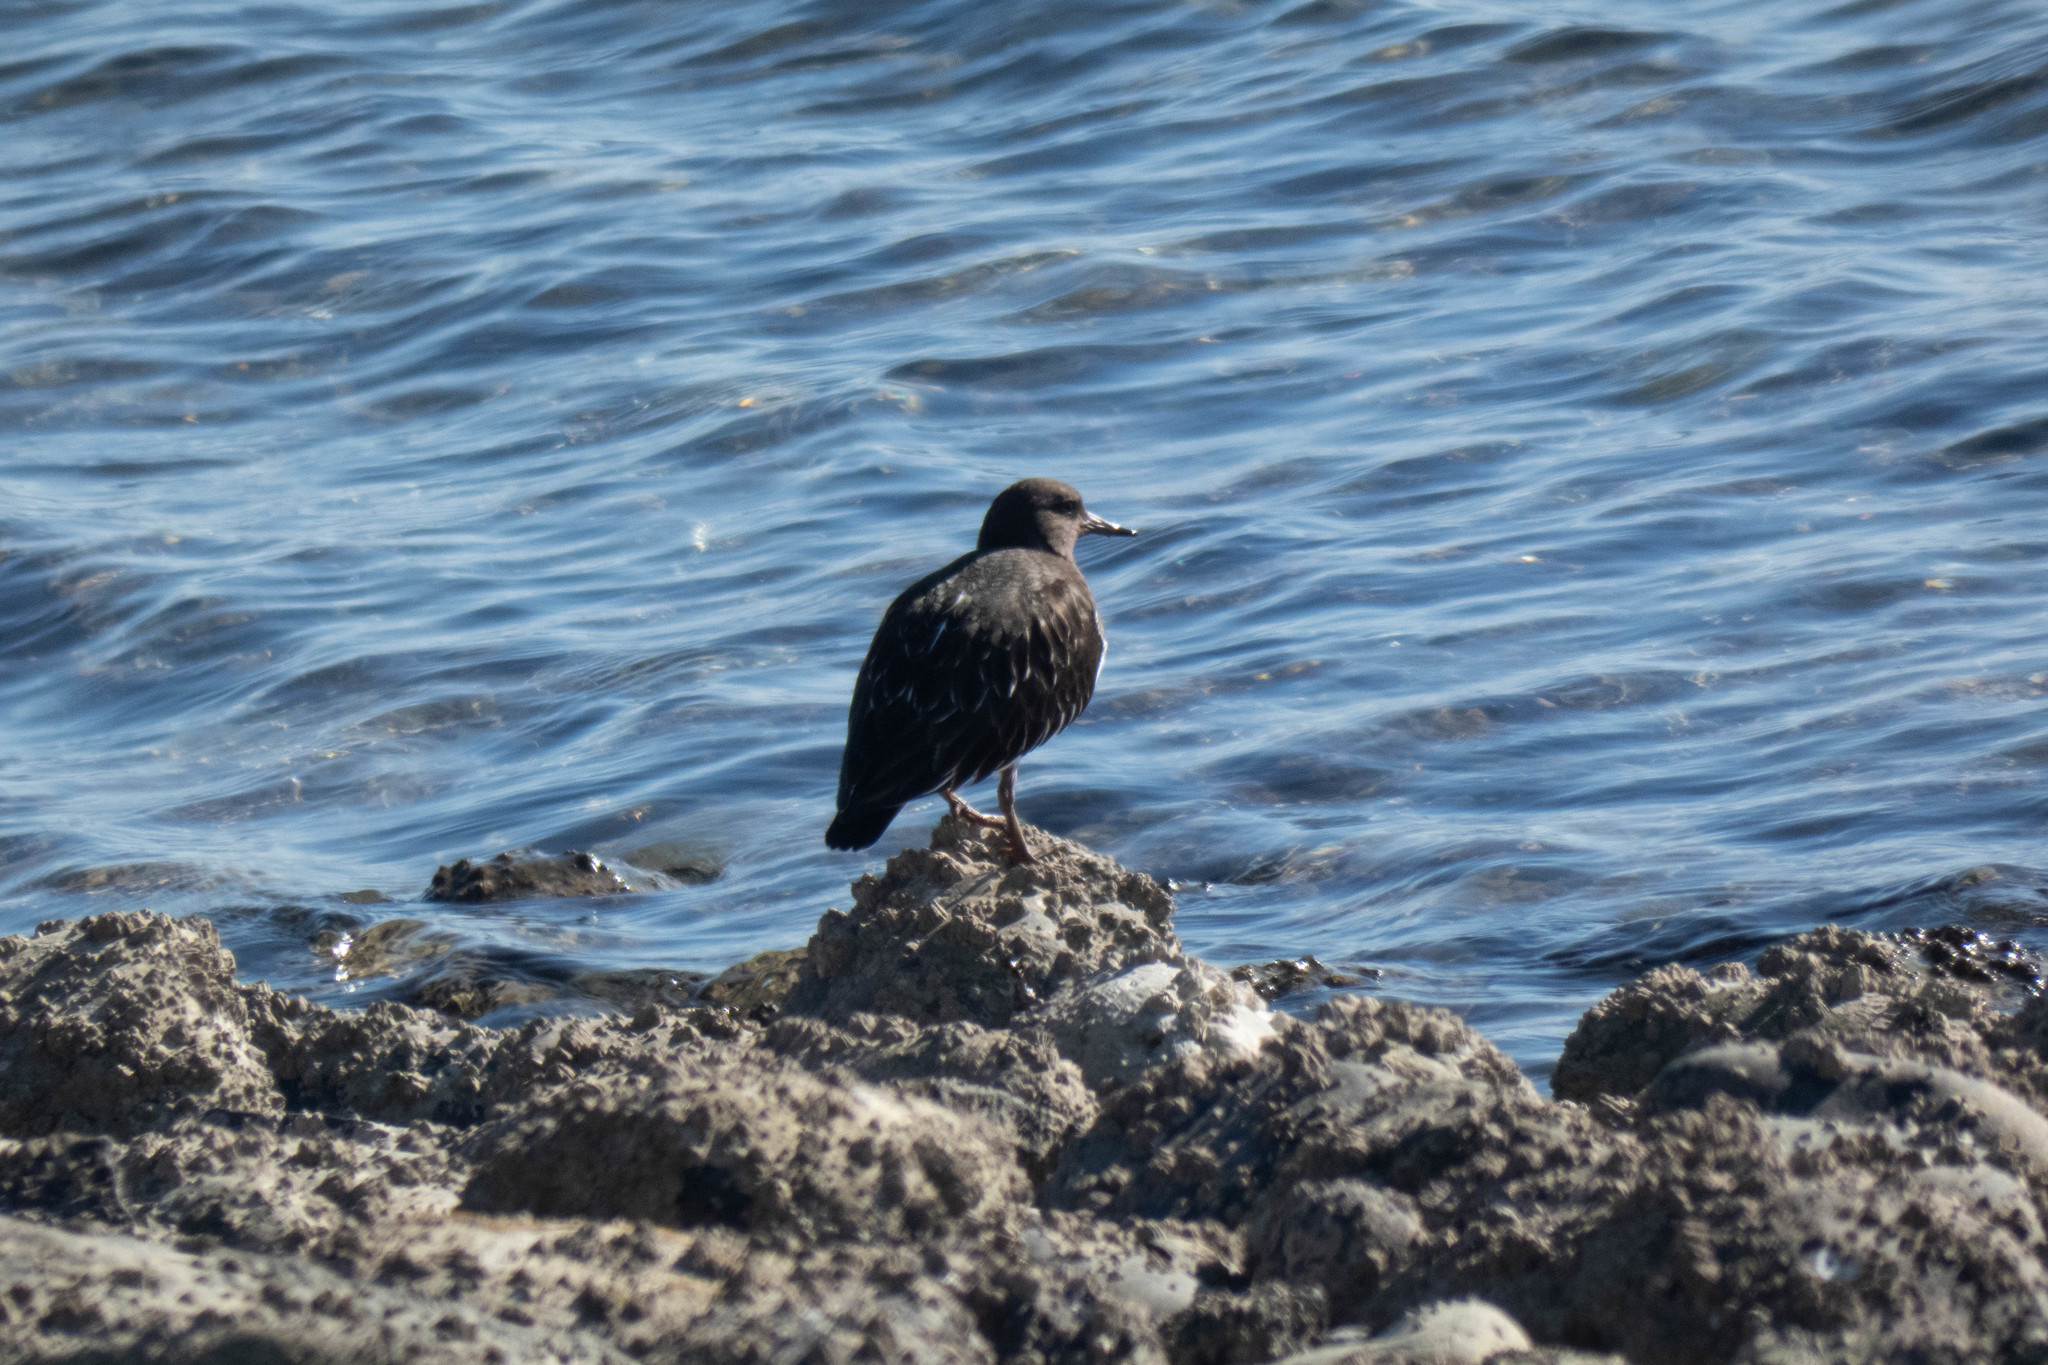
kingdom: Animalia
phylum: Chordata
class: Aves
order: Charadriiformes
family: Scolopacidae
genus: Arenaria
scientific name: Arenaria melanocephala
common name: Black turnstone
